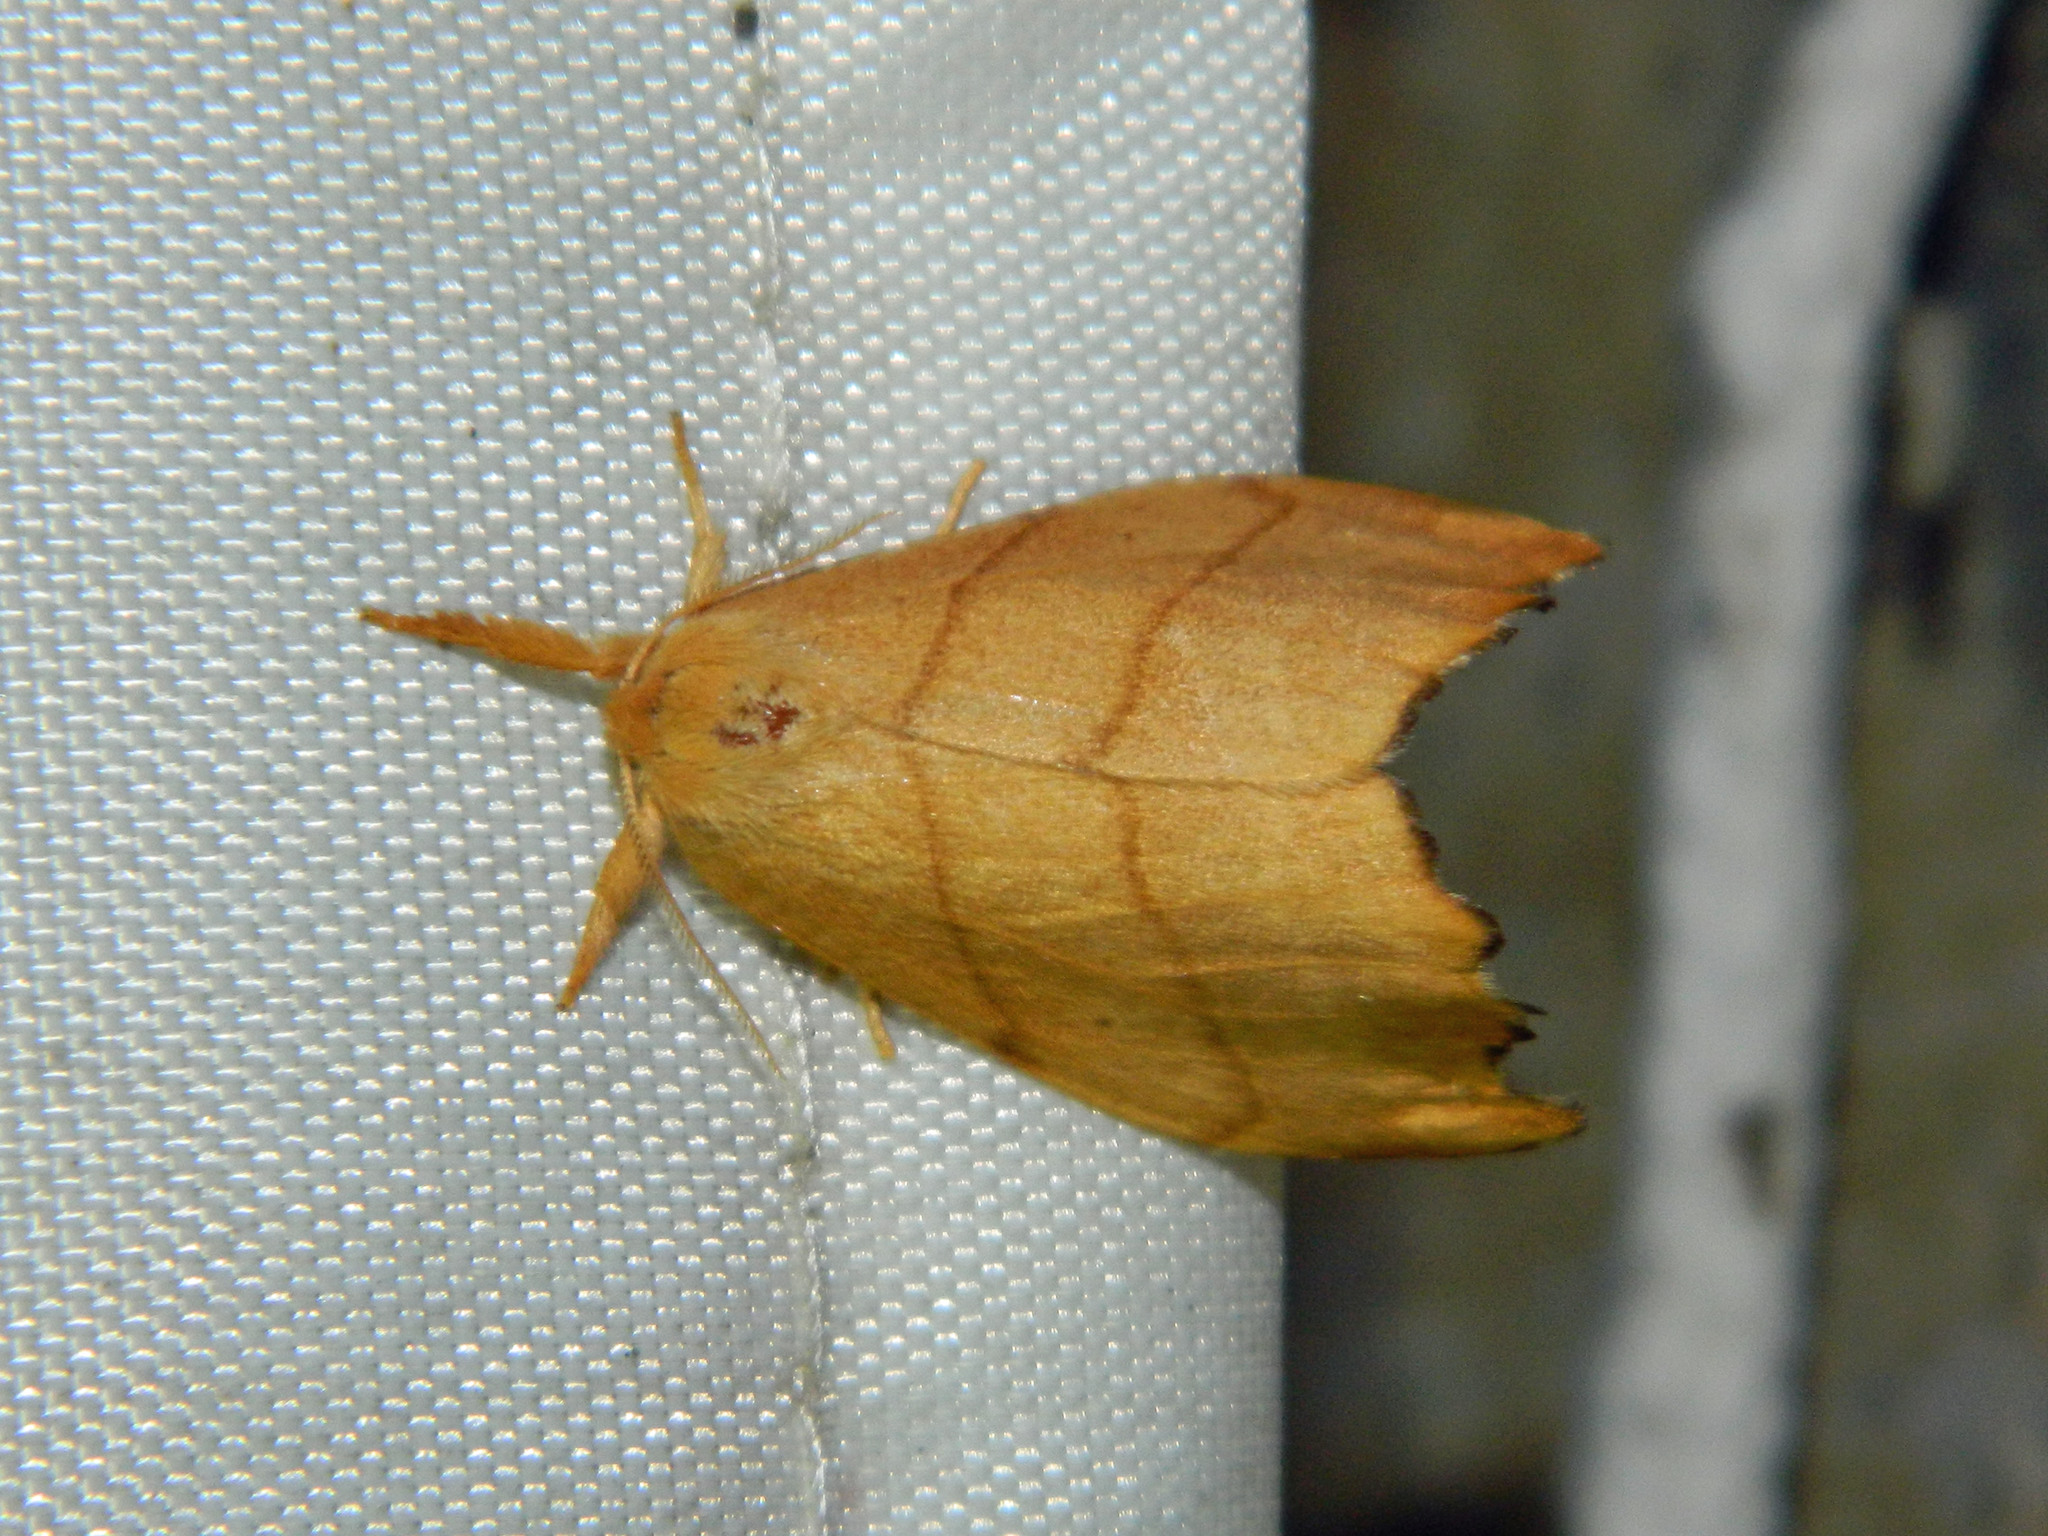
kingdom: Animalia
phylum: Arthropoda
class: Insecta
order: Lepidoptera
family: Drepanidae
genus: Falcaria
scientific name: Falcaria bilineata
